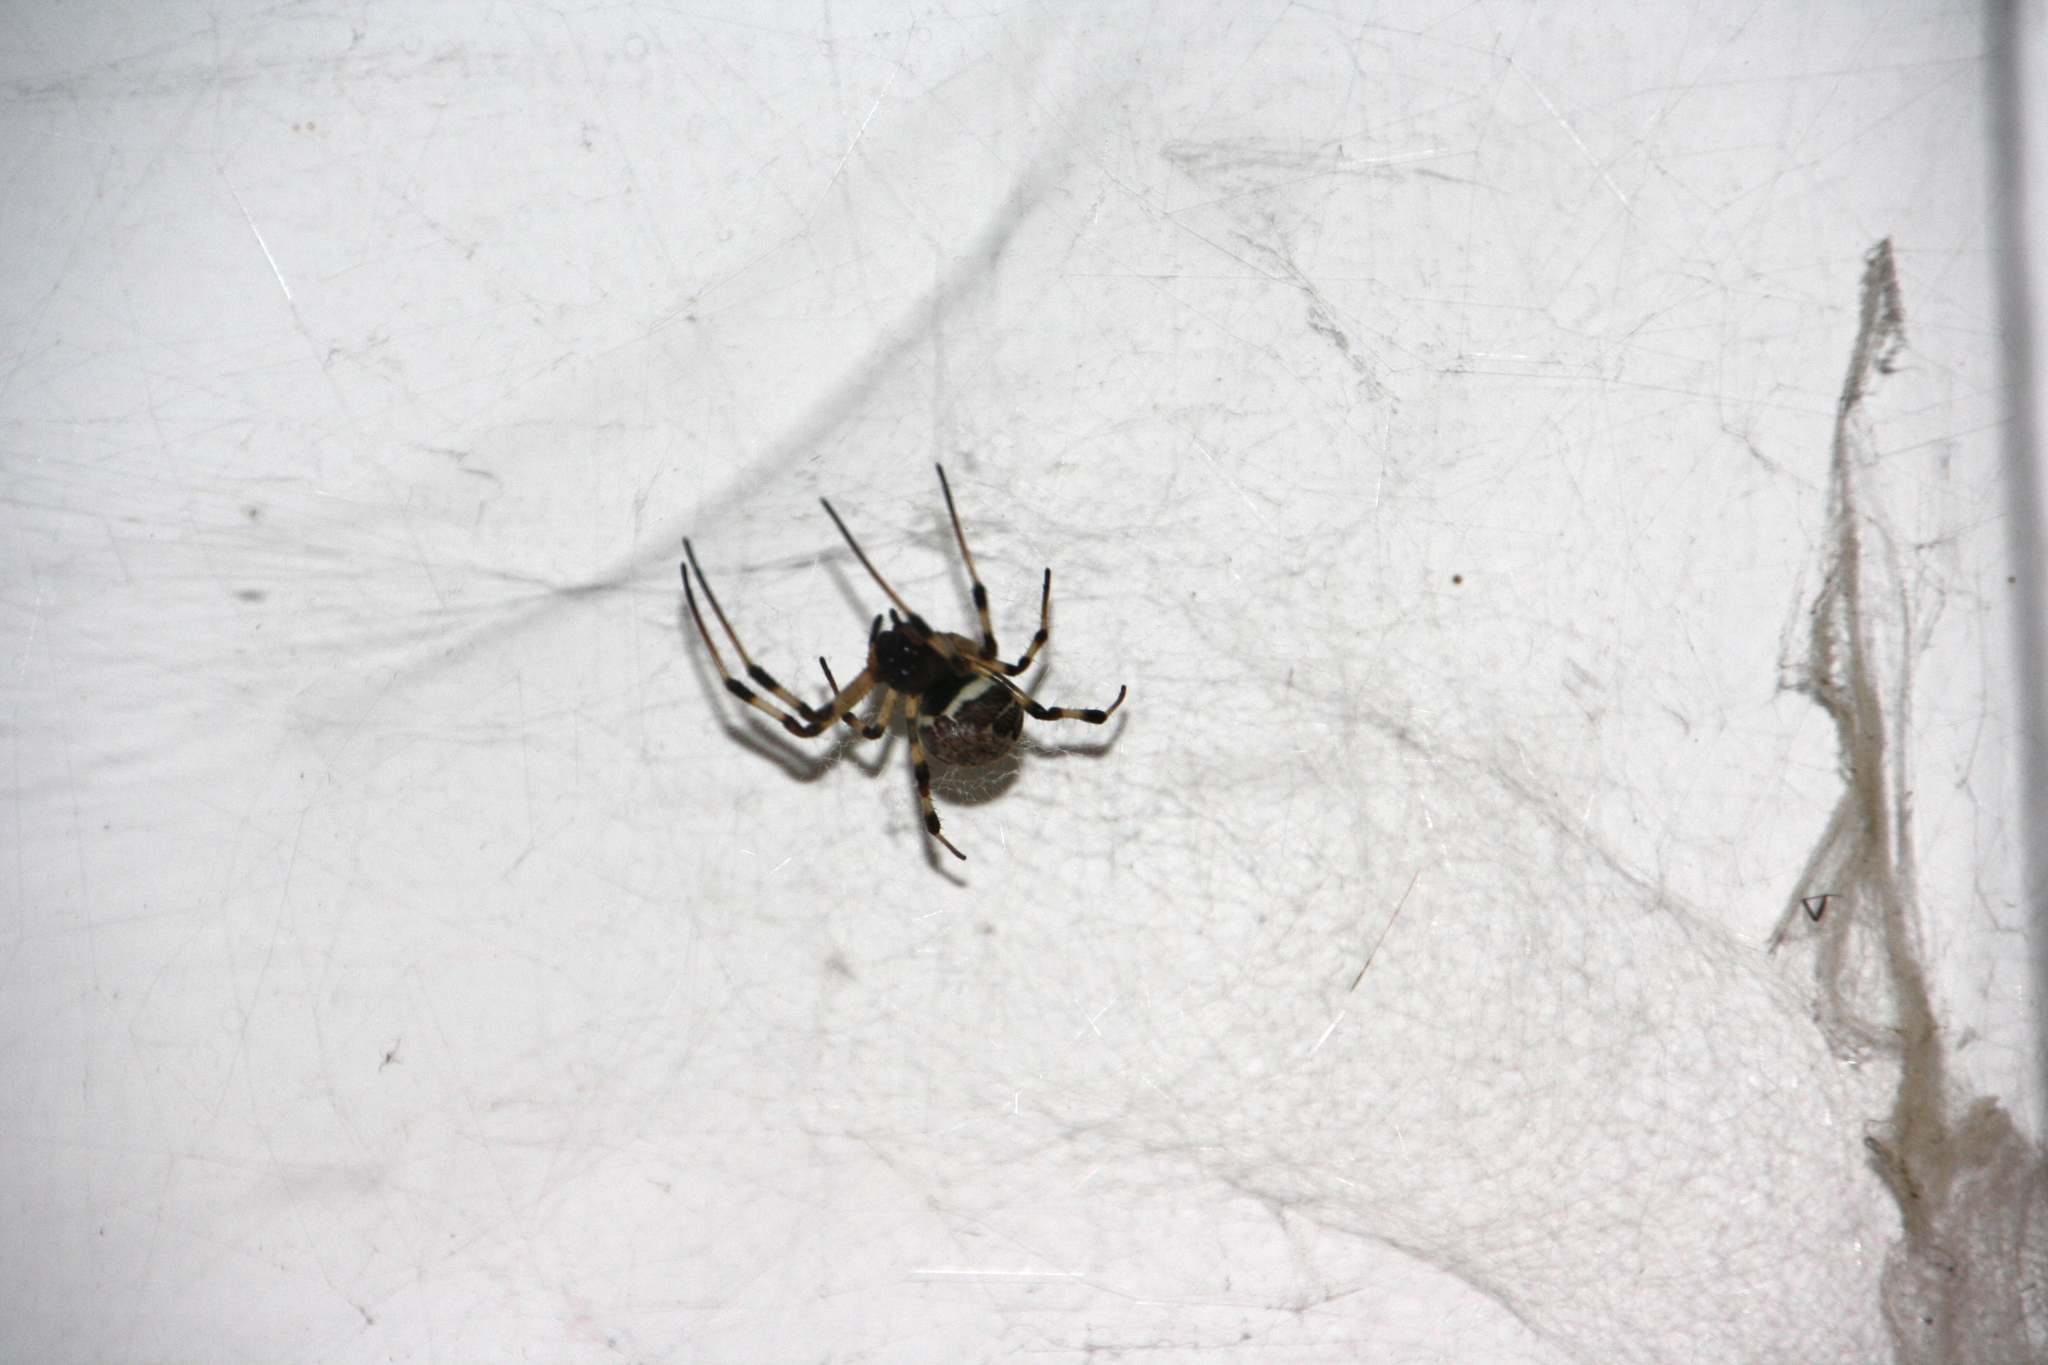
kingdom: Animalia
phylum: Arthropoda
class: Arachnida
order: Araneae
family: Araneidae
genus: Nephilengys
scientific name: Nephilengys malabarensis
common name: Asian hermit spider
